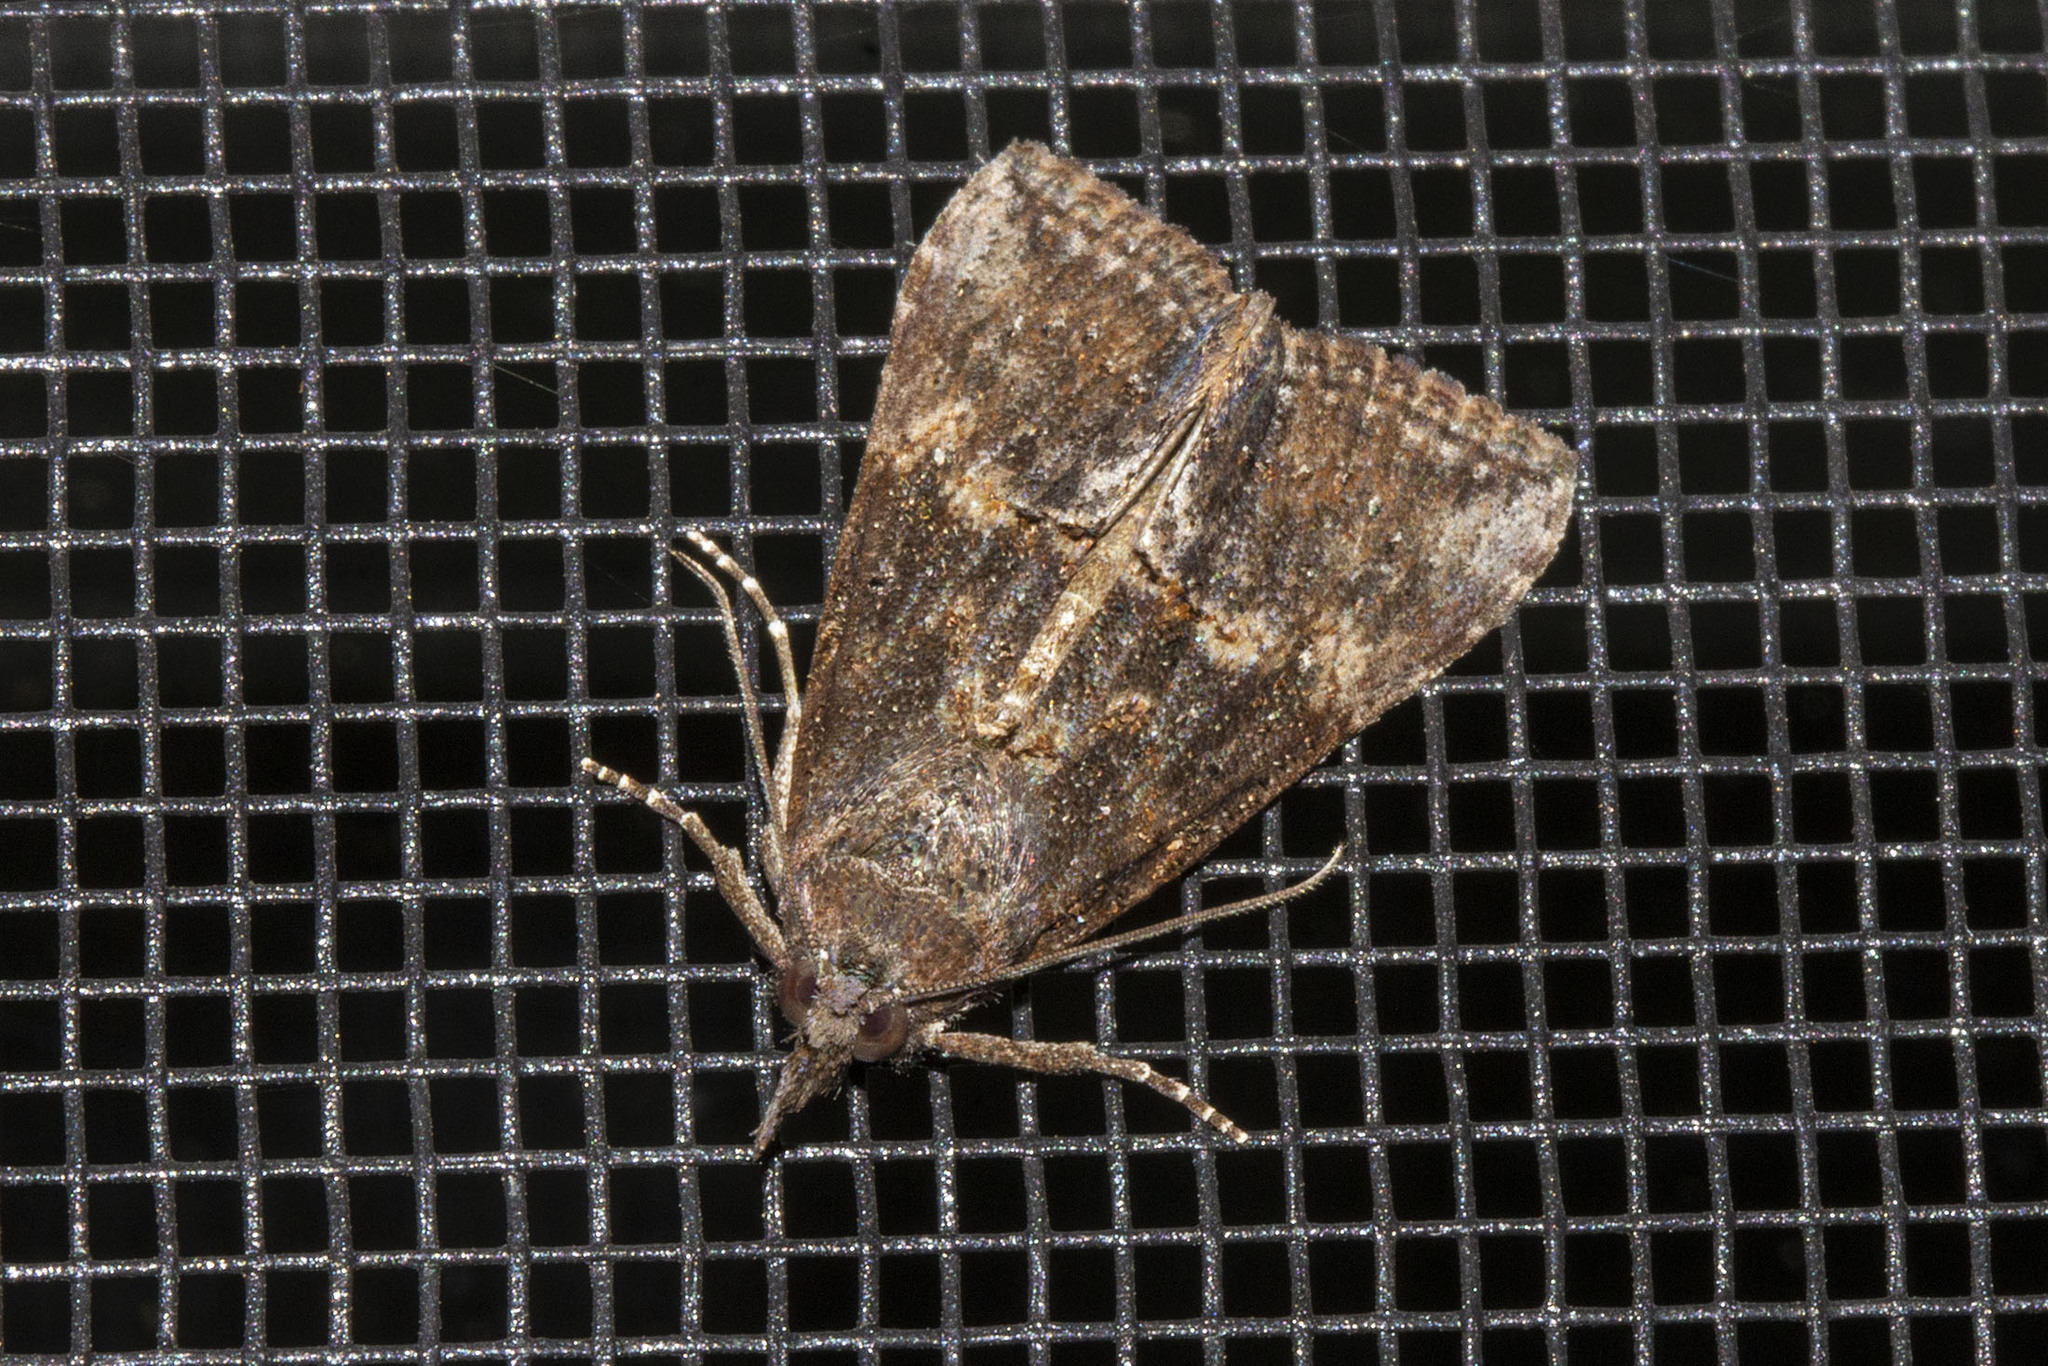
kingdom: Animalia
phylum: Arthropoda
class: Insecta
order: Lepidoptera
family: Erebidae
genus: Hypena
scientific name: Hypena scabra
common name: Green cloverworm
